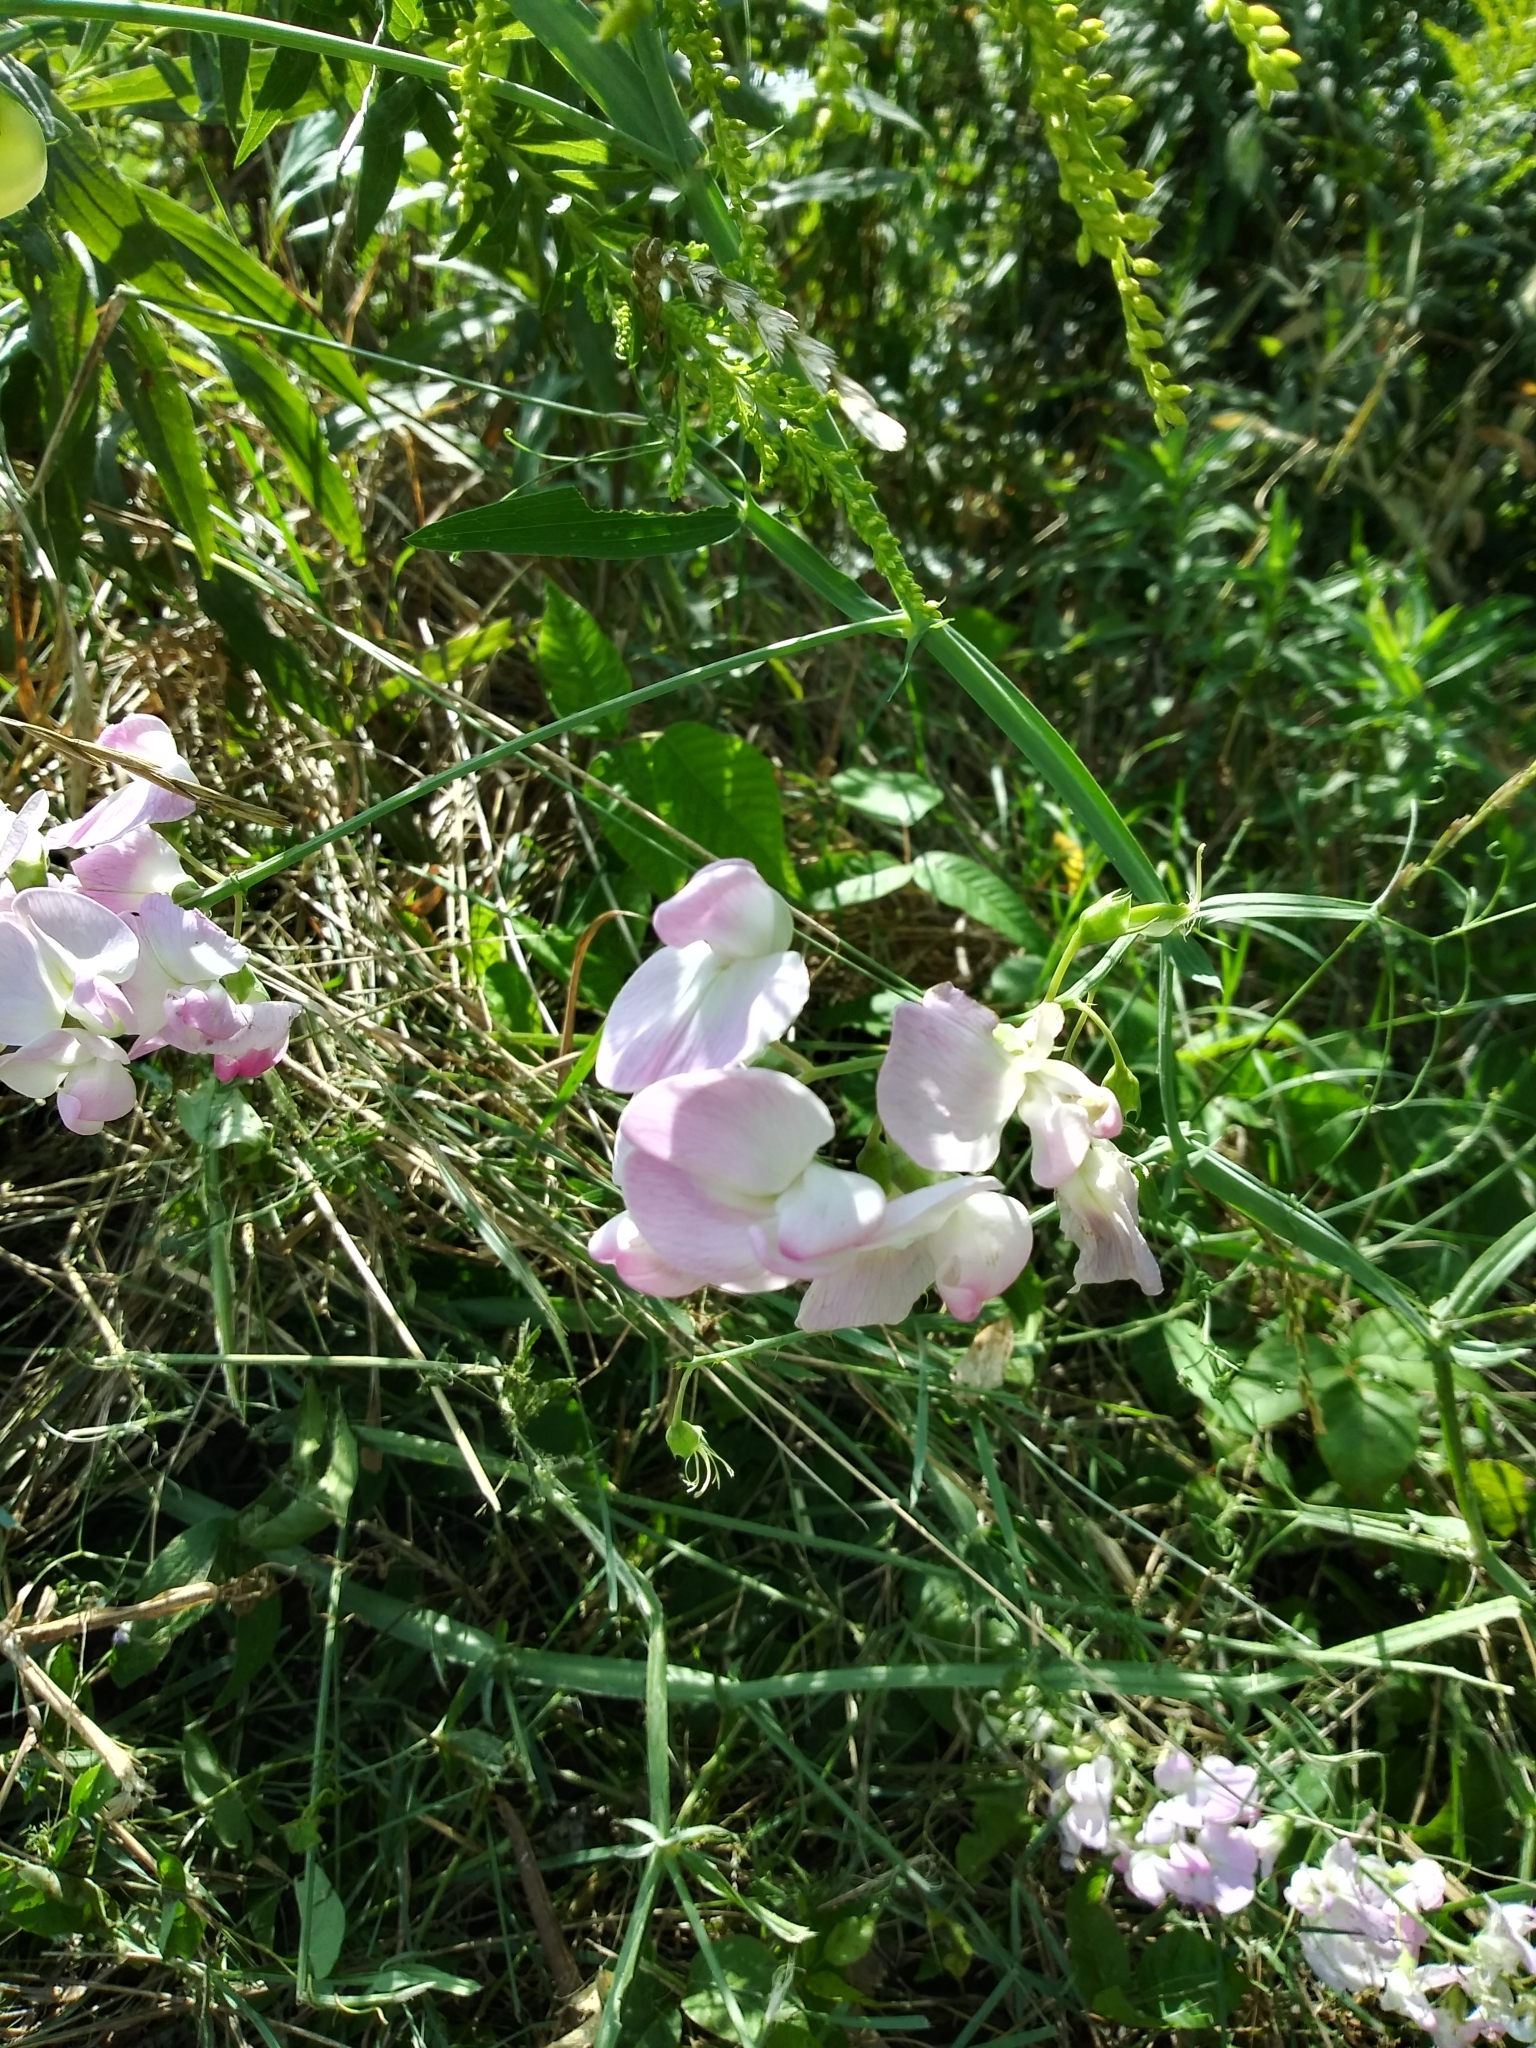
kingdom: Plantae
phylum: Tracheophyta
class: Magnoliopsida
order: Fabales
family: Fabaceae
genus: Lathyrus
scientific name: Lathyrus latifolius
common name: Perennial pea
